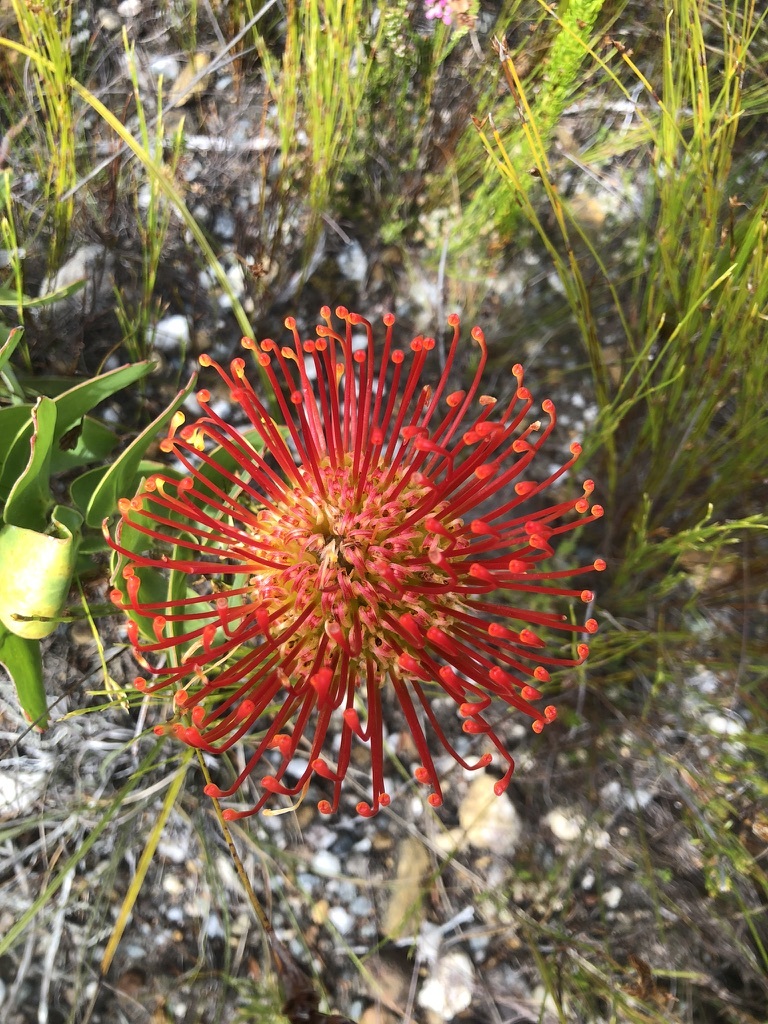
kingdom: Plantae
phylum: Tracheophyta
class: Magnoliopsida
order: Proteales
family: Proteaceae
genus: Leucospermum
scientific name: Leucospermum cordifolium
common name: Red pincushion-protea
